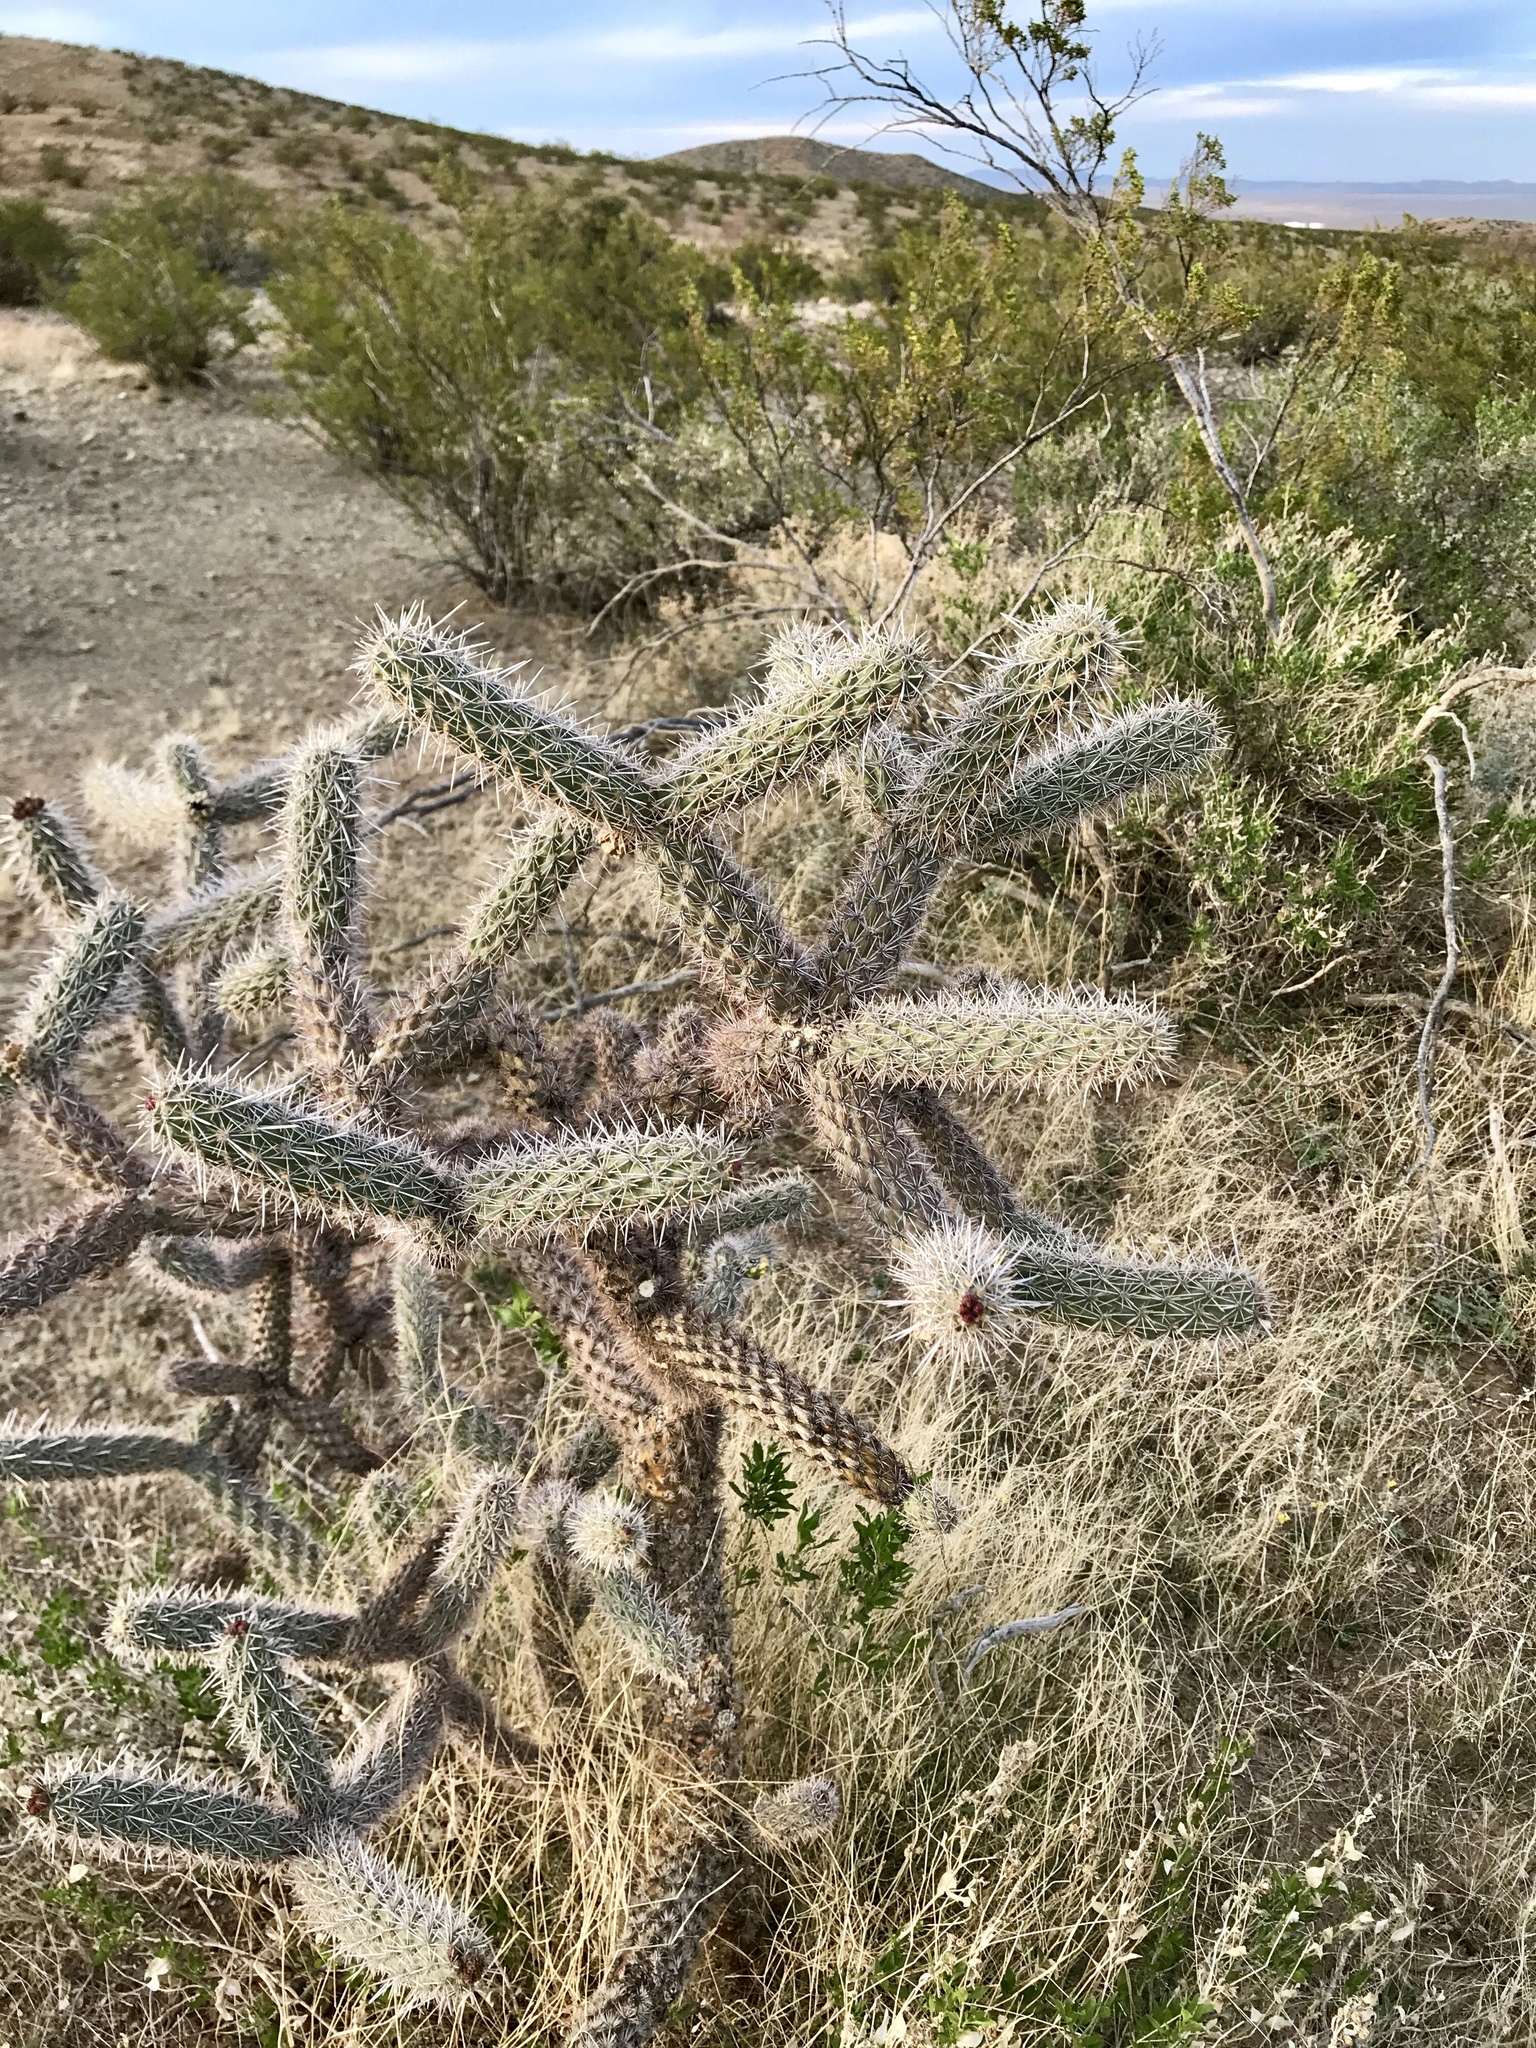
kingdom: Plantae
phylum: Tracheophyta
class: Magnoliopsida
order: Caryophyllales
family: Cactaceae
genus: Cylindropuntia
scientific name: Cylindropuntia imbricata
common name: Candelabrum cactus
